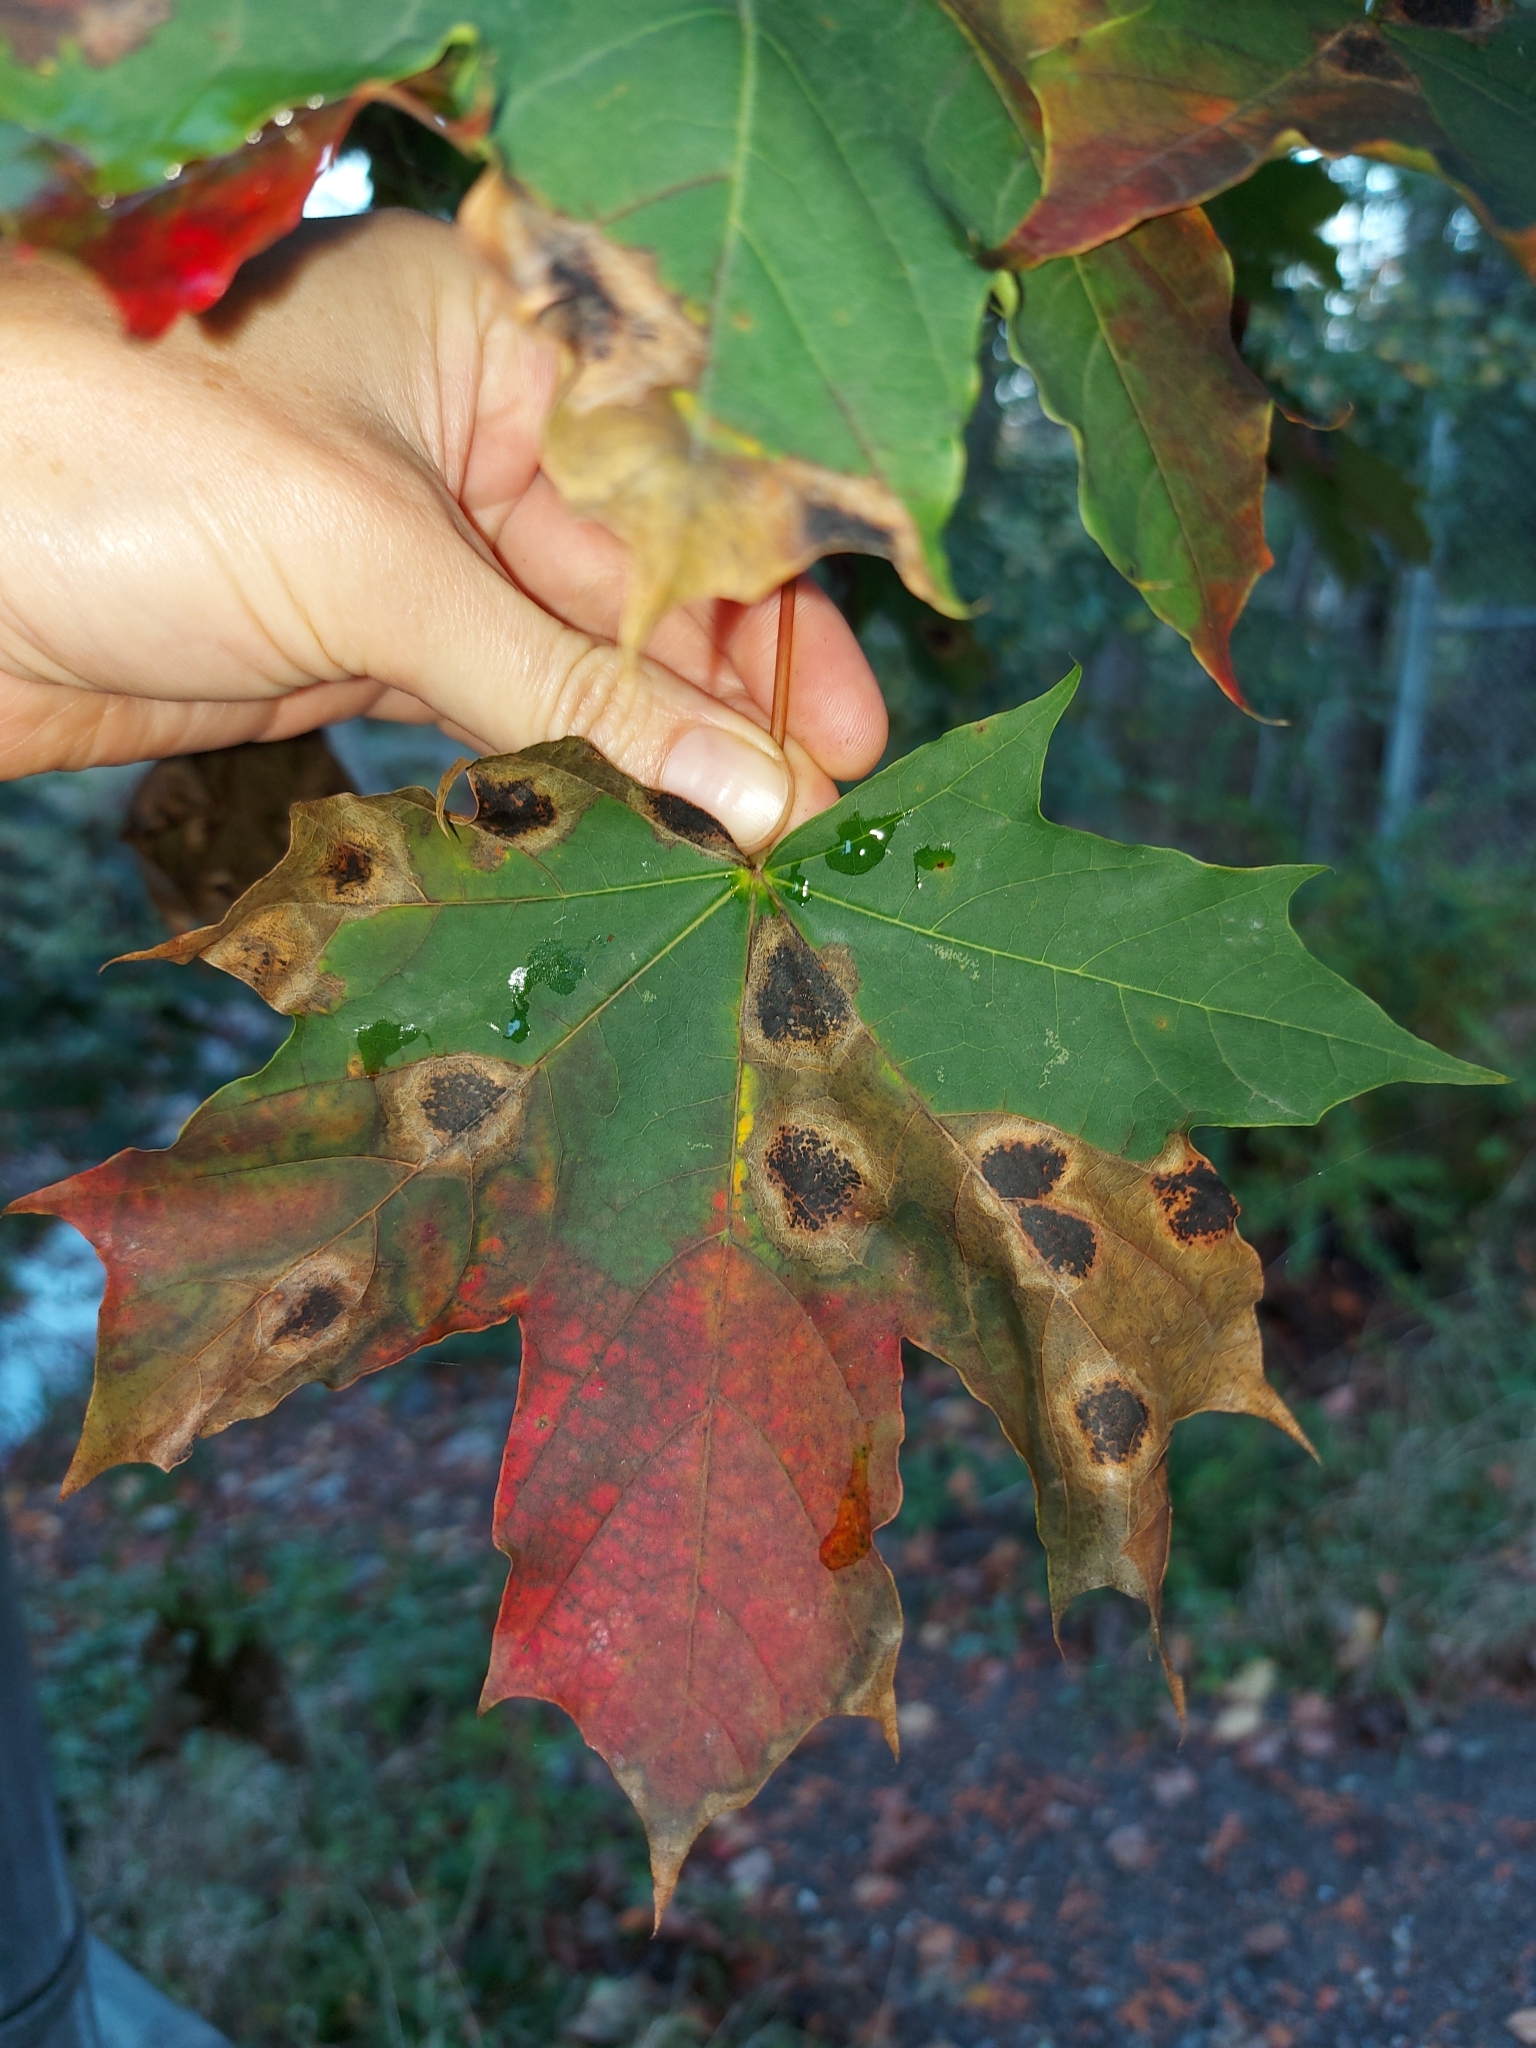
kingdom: Plantae
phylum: Tracheophyta
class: Magnoliopsida
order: Sapindales
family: Sapindaceae
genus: Acer
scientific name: Acer platanoides
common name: Norway maple
